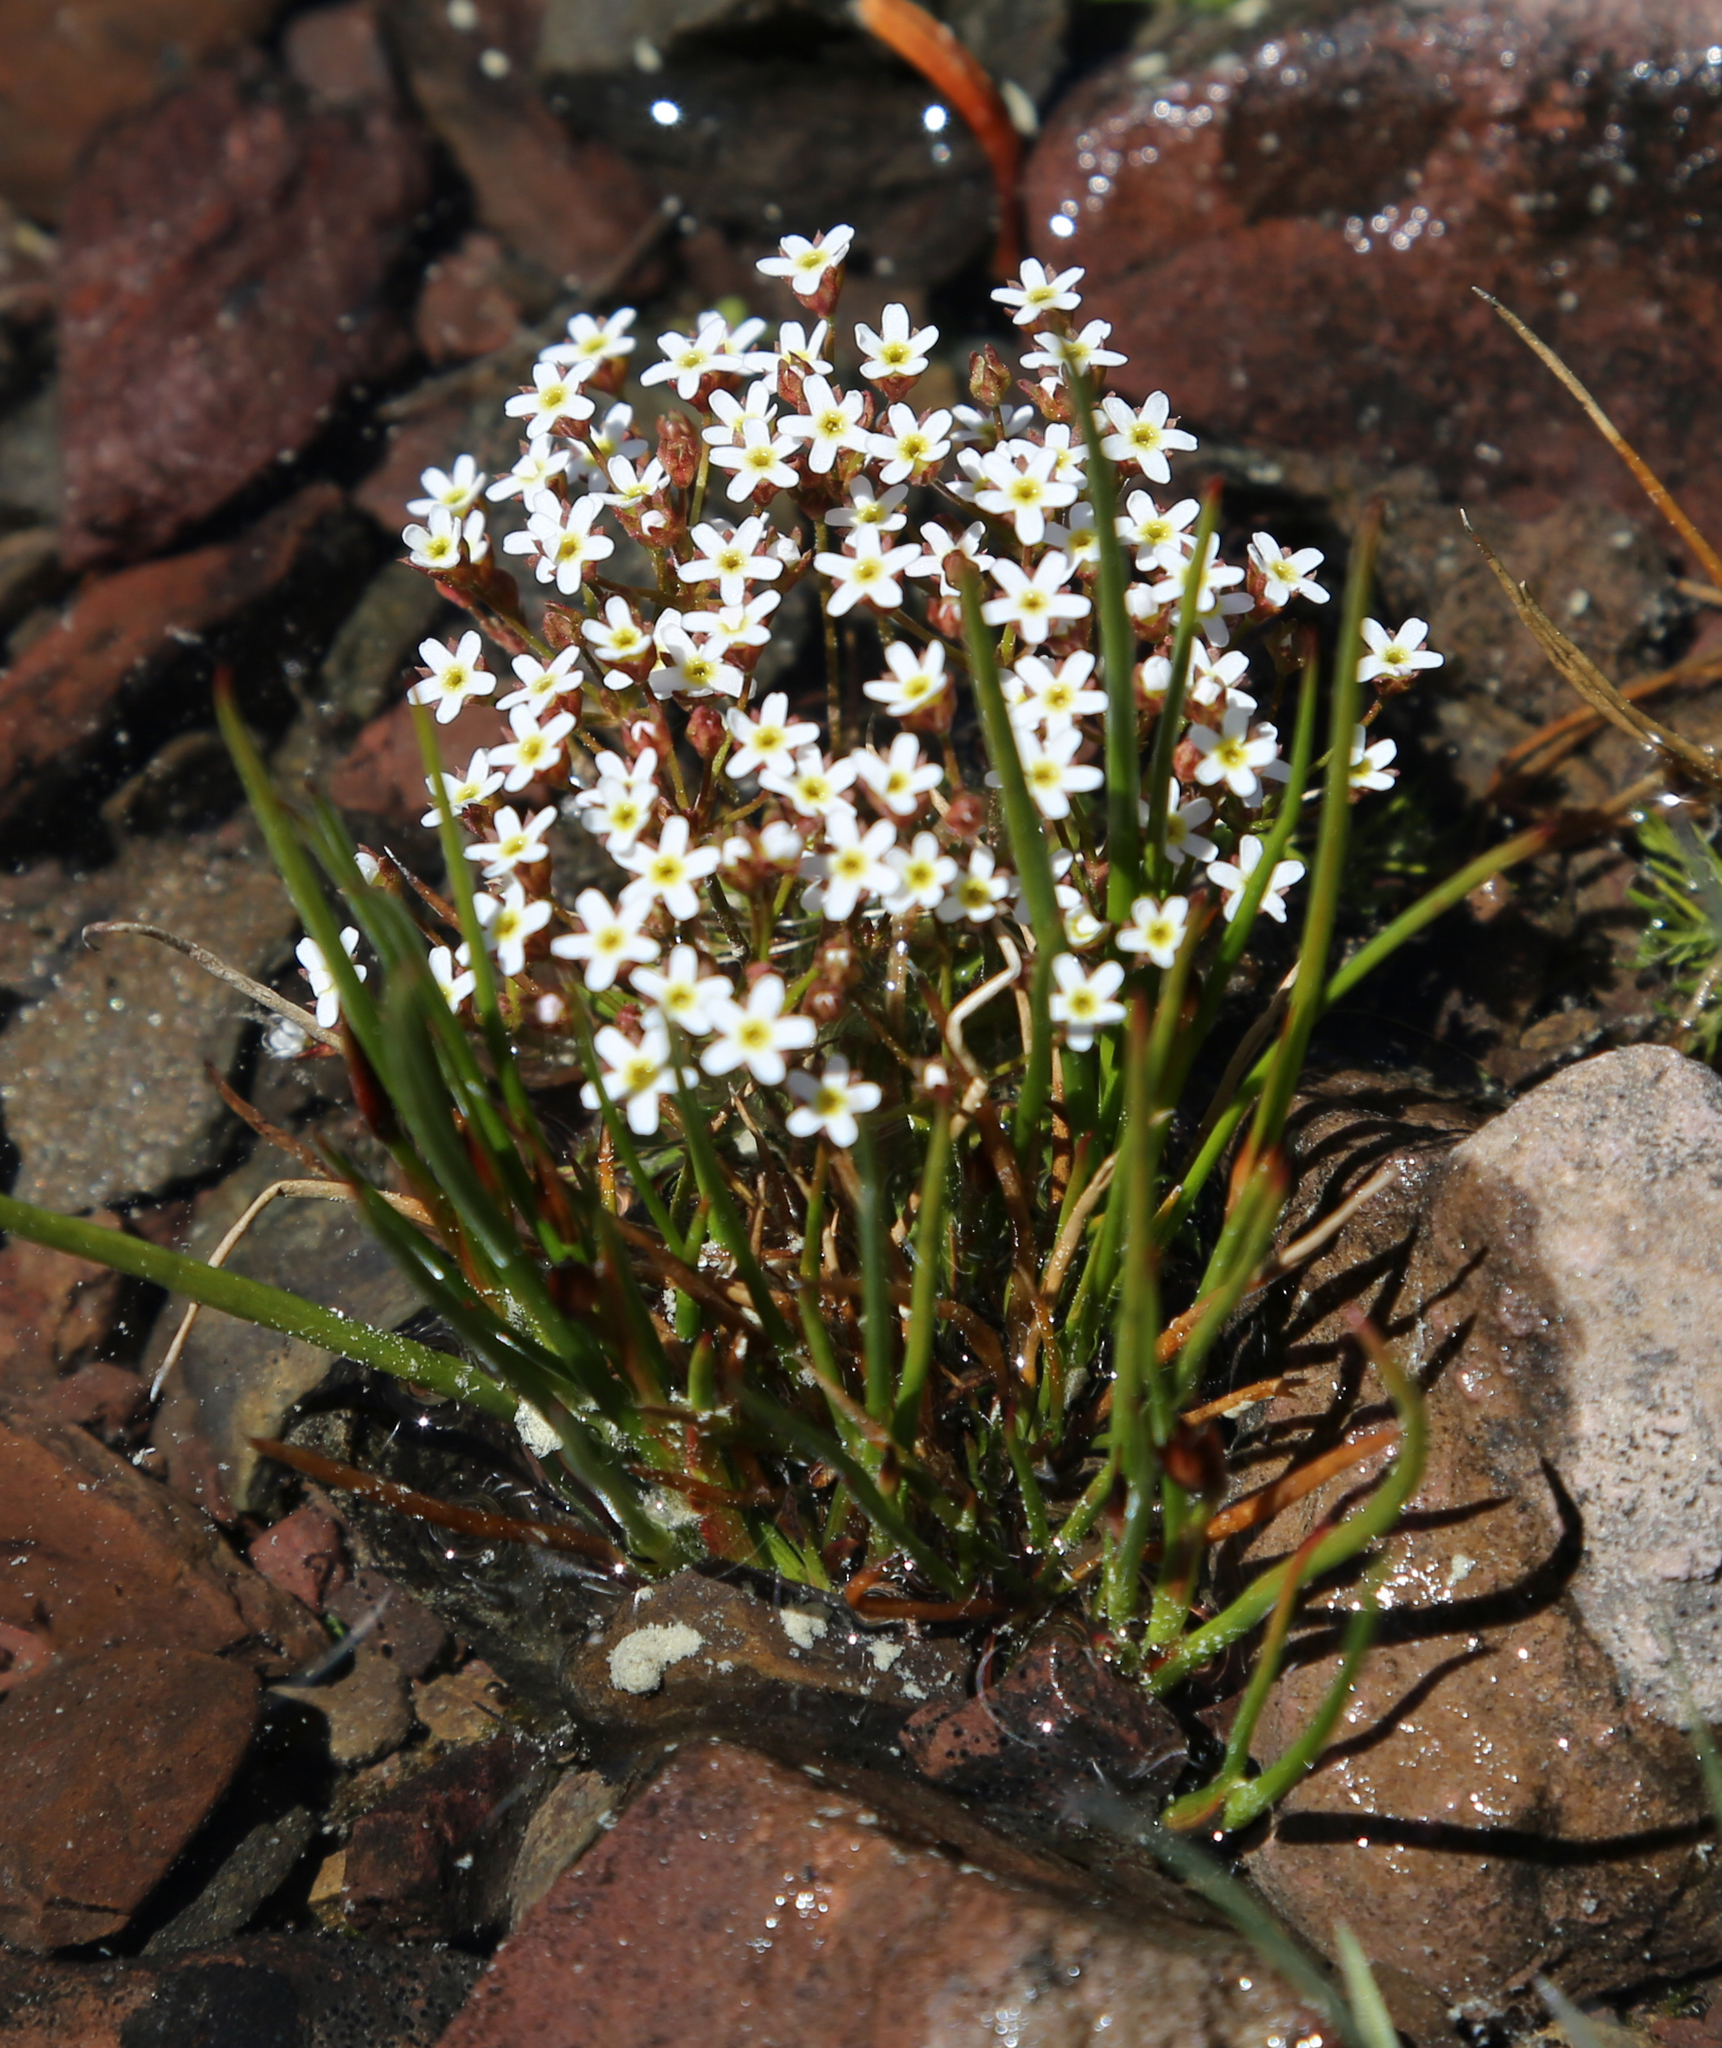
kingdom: Plantae
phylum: Tracheophyta
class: Magnoliopsida
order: Ericales
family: Primulaceae
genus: Androsace
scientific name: Androsace septentrionalis
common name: Hairy northern fairy-candelabra
